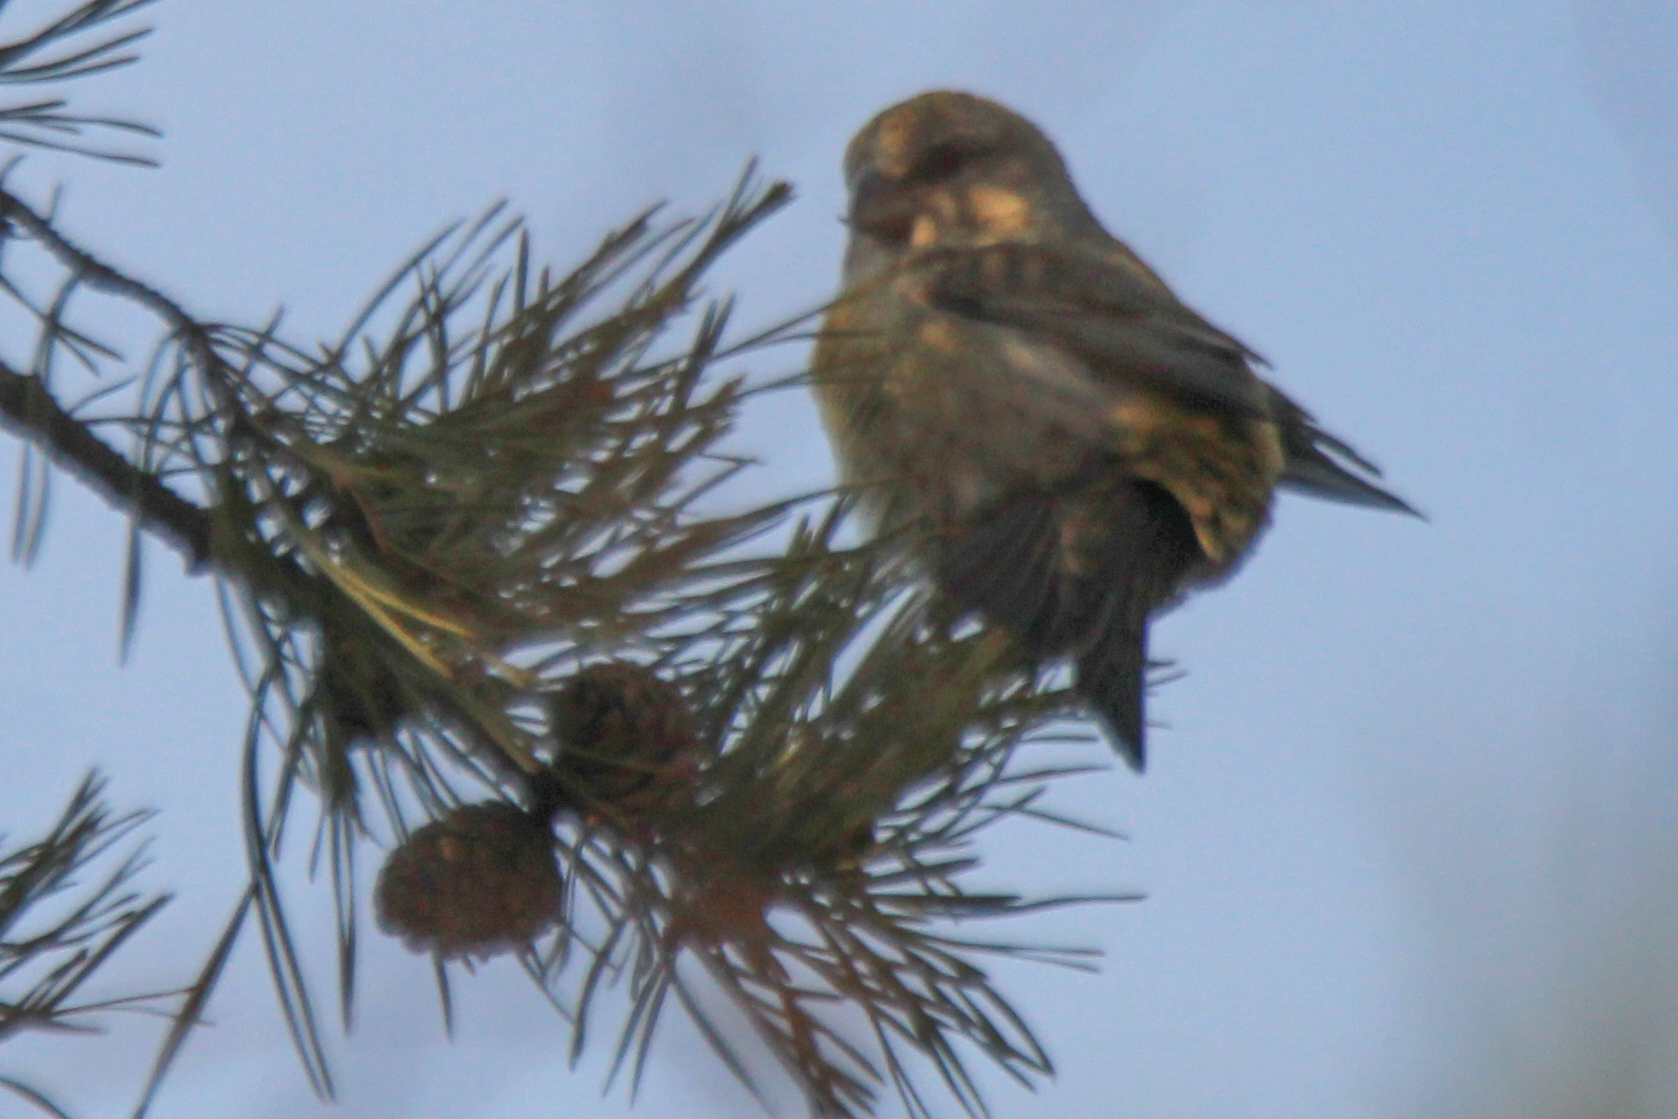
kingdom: Animalia
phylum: Chordata
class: Aves
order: Passeriformes
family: Fringillidae
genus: Loxia
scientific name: Loxia curvirostra
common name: Red crossbill
